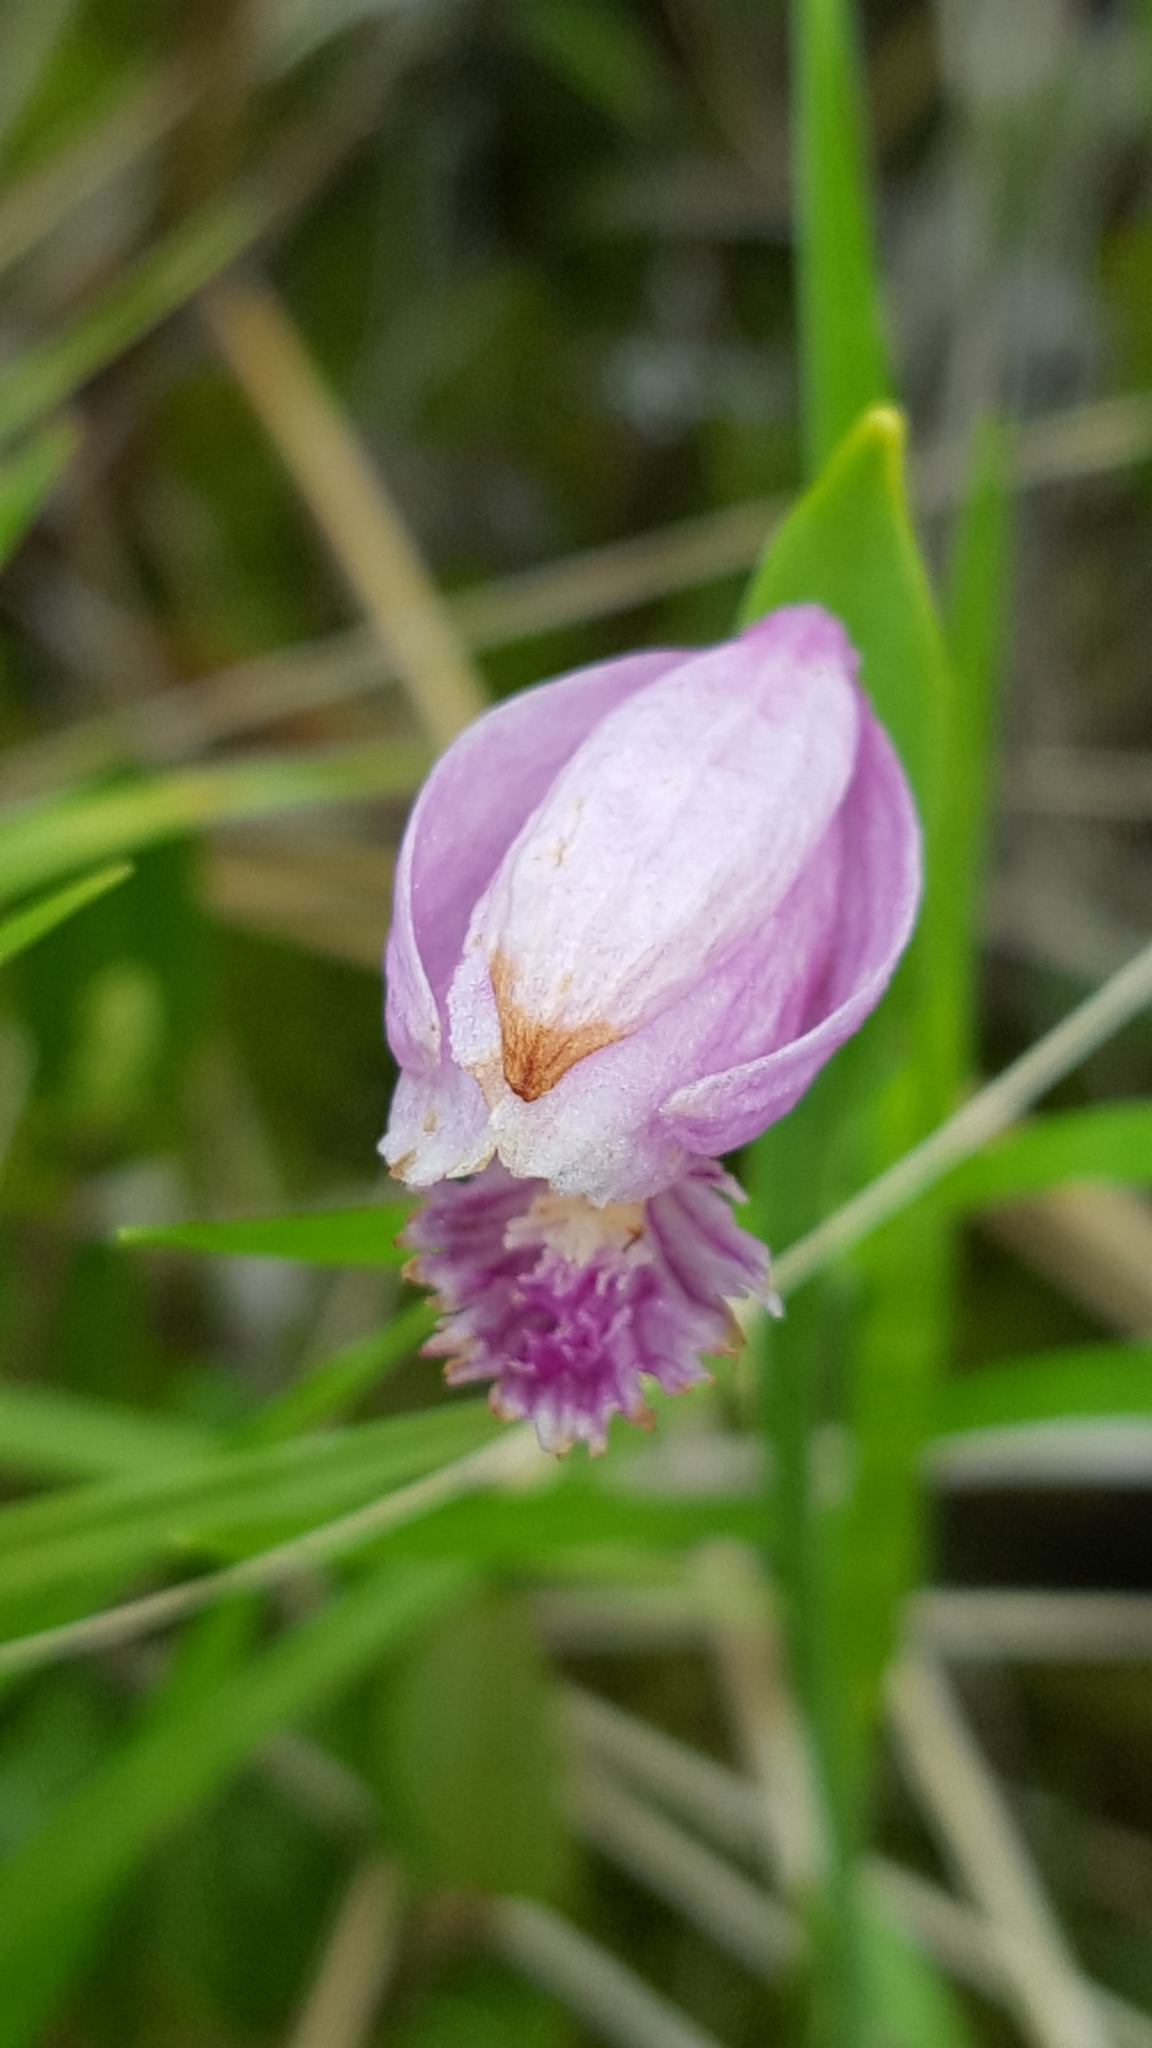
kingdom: Plantae
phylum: Tracheophyta
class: Liliopsida
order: Asparagales
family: Orchidaceae
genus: Pogonia
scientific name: Pogonia ophioglossoides
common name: Rose pogonia
